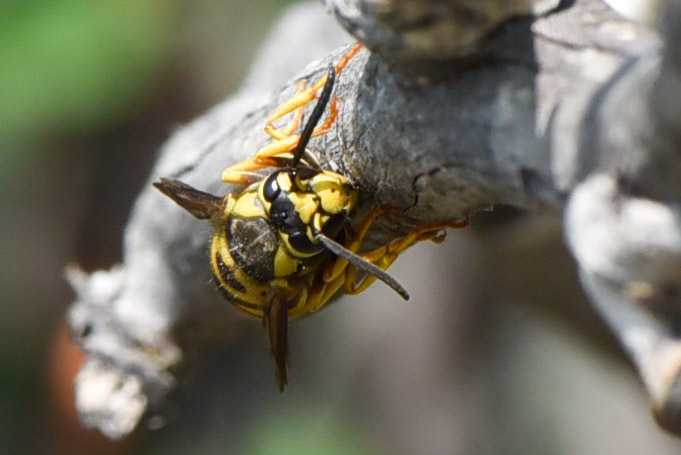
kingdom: Animalia
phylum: Arthropoda
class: Insecta
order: Hymenoptera
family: Vespidae
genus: Vespula
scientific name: Vespula atropilosa
